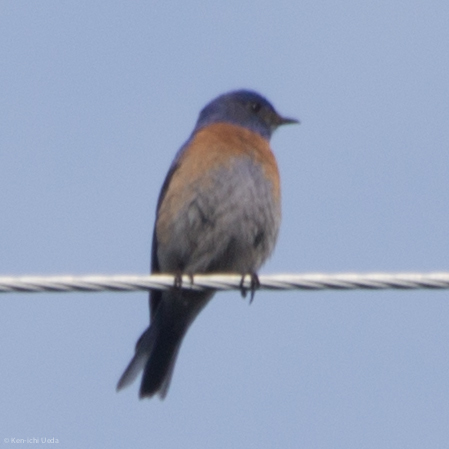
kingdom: Animalia
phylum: Chordata
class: Aves
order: Passeriformes
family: Turdidae
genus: Sialia
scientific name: Sialia mexicana
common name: Western bluebird
